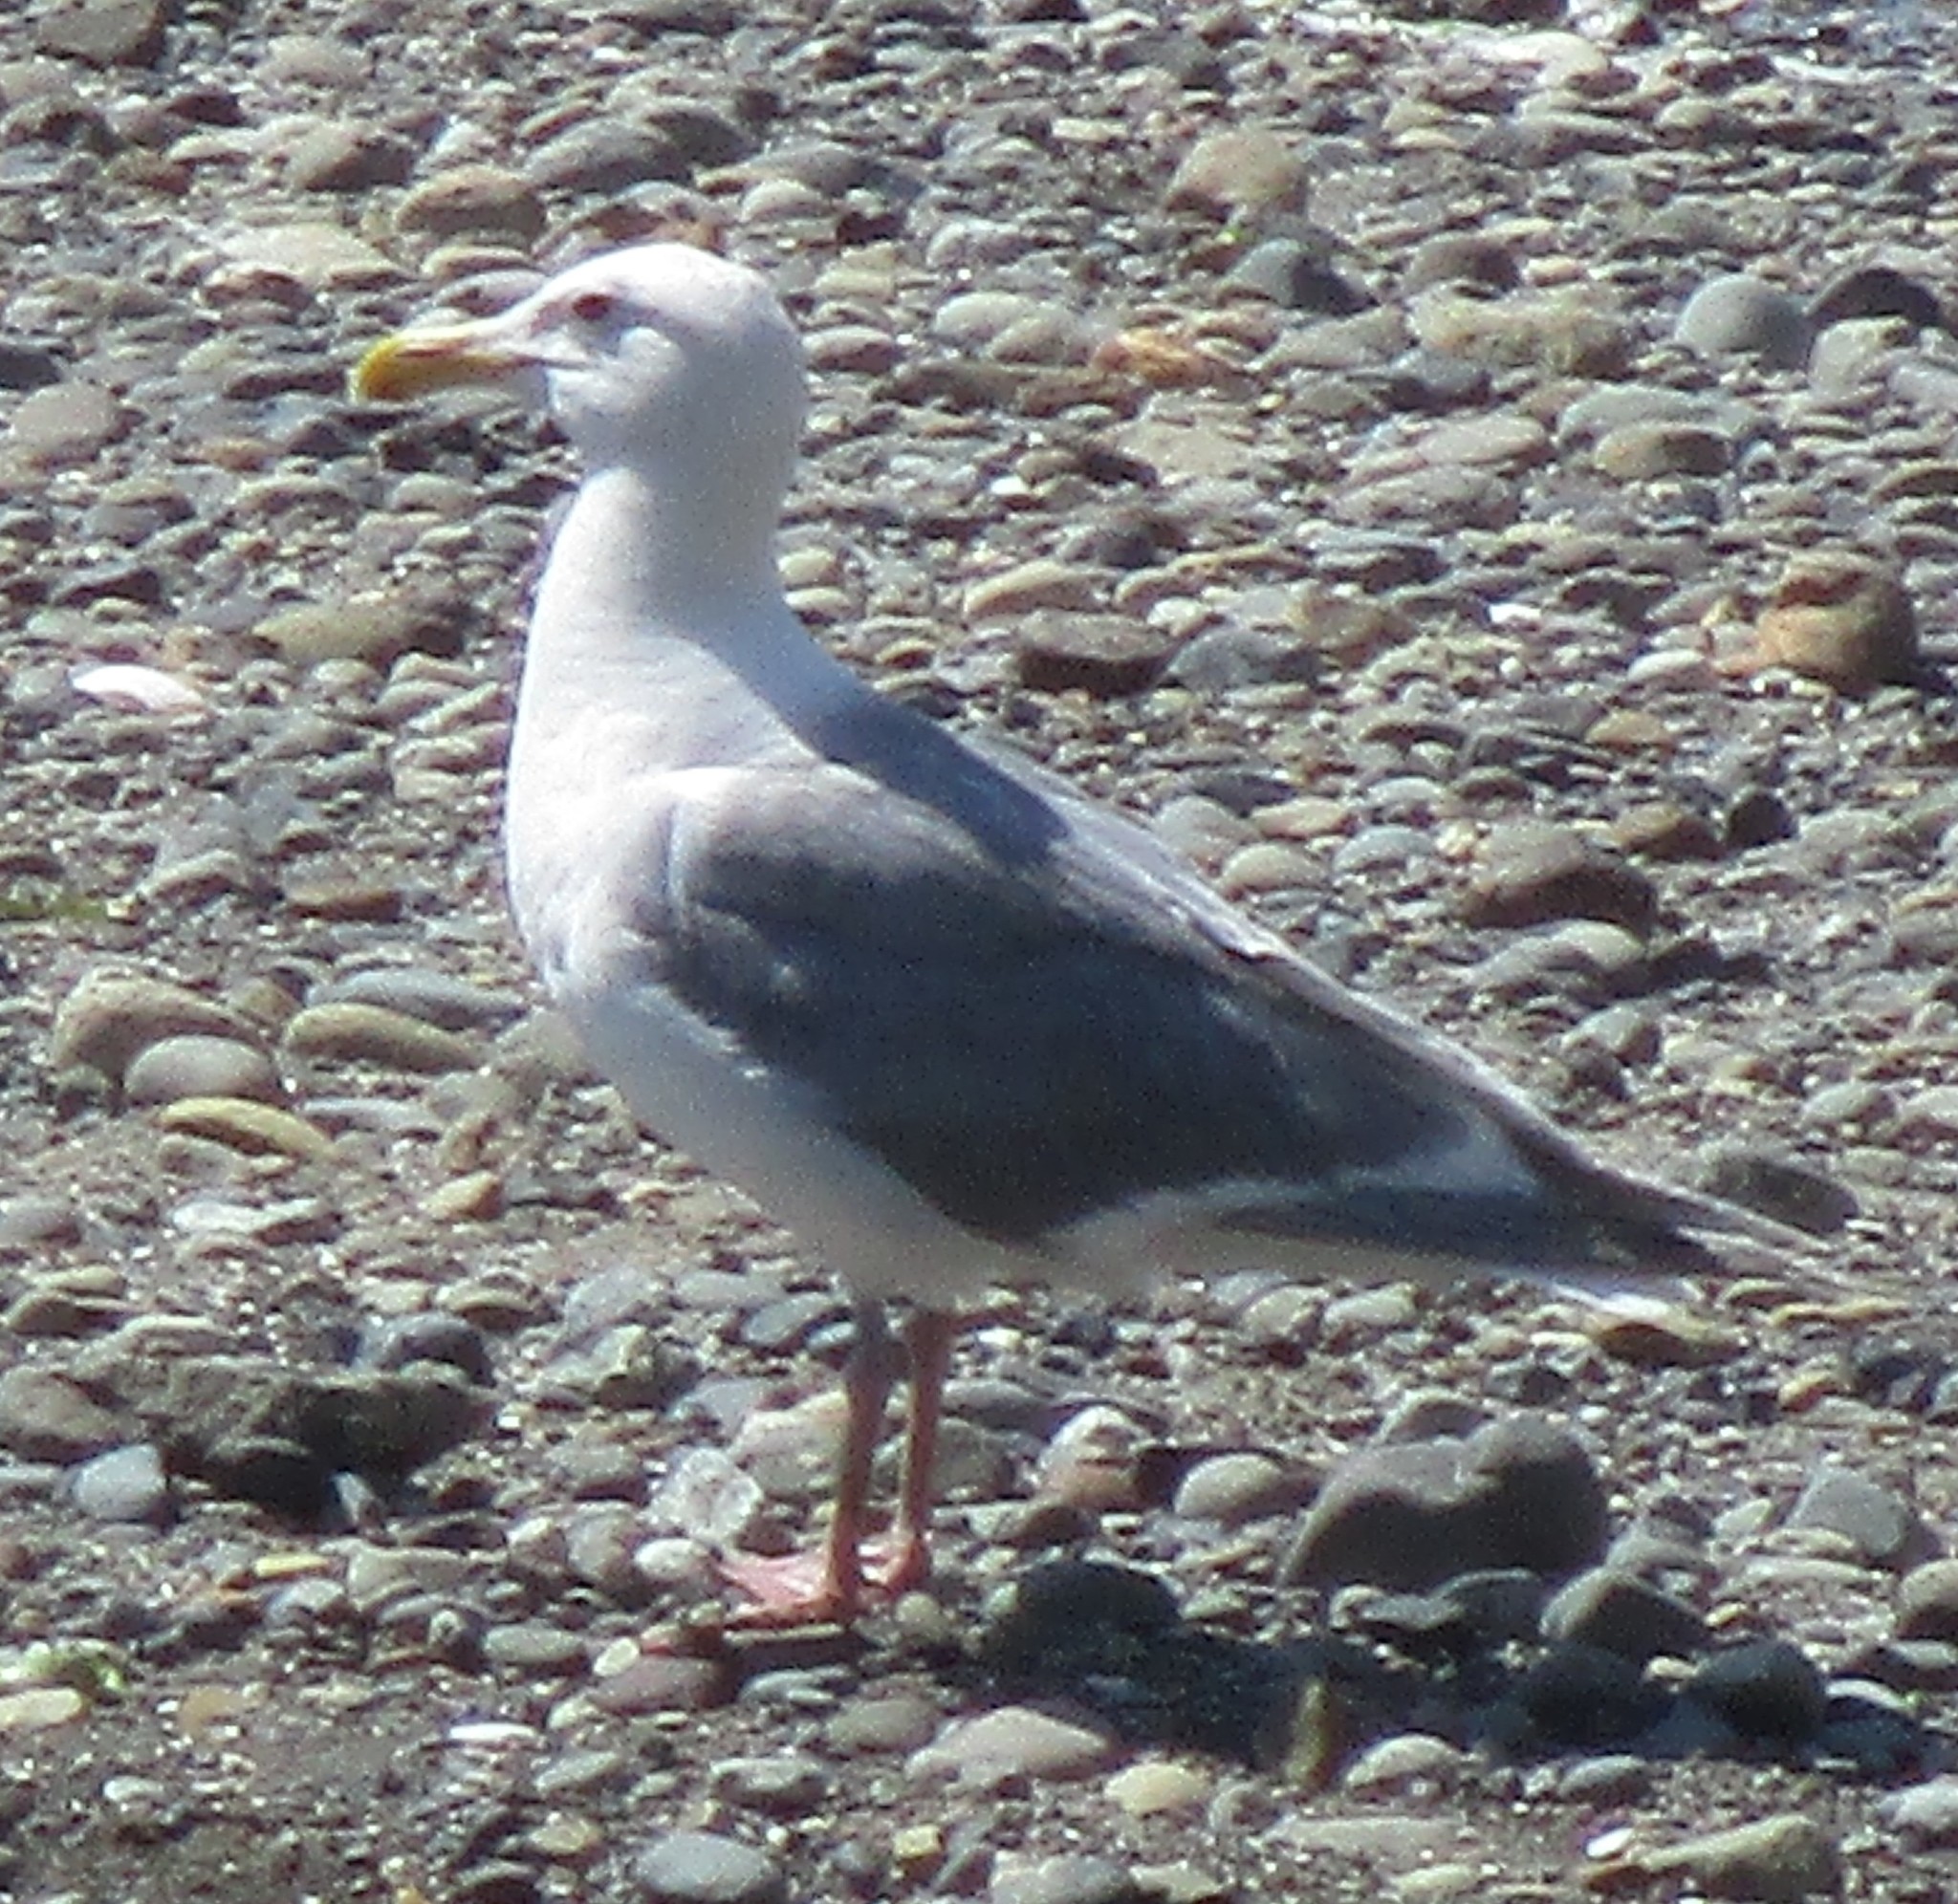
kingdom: Animalia
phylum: Chordata
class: Aves
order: Charadriiformes
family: Laridae
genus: Larus
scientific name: Larus
